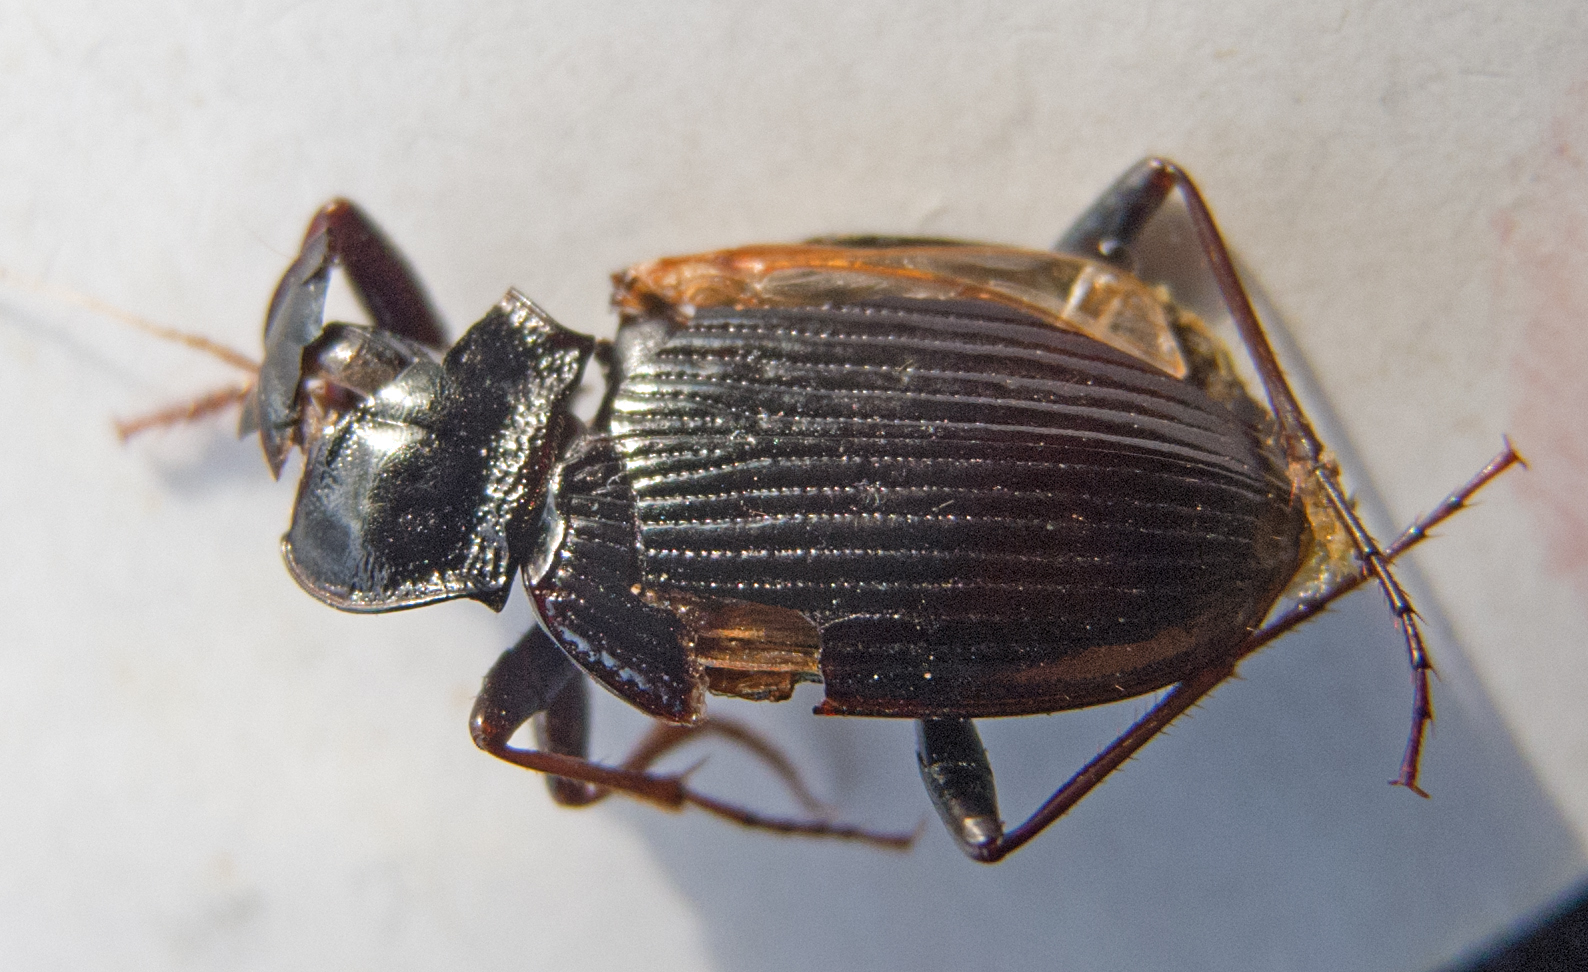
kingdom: Animalia
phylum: Arthropoda
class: Insecta
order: Coleoptera
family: Carabidae
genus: Nebria
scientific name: Nebria brevicollis
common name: Short-necked gazelle beetle
